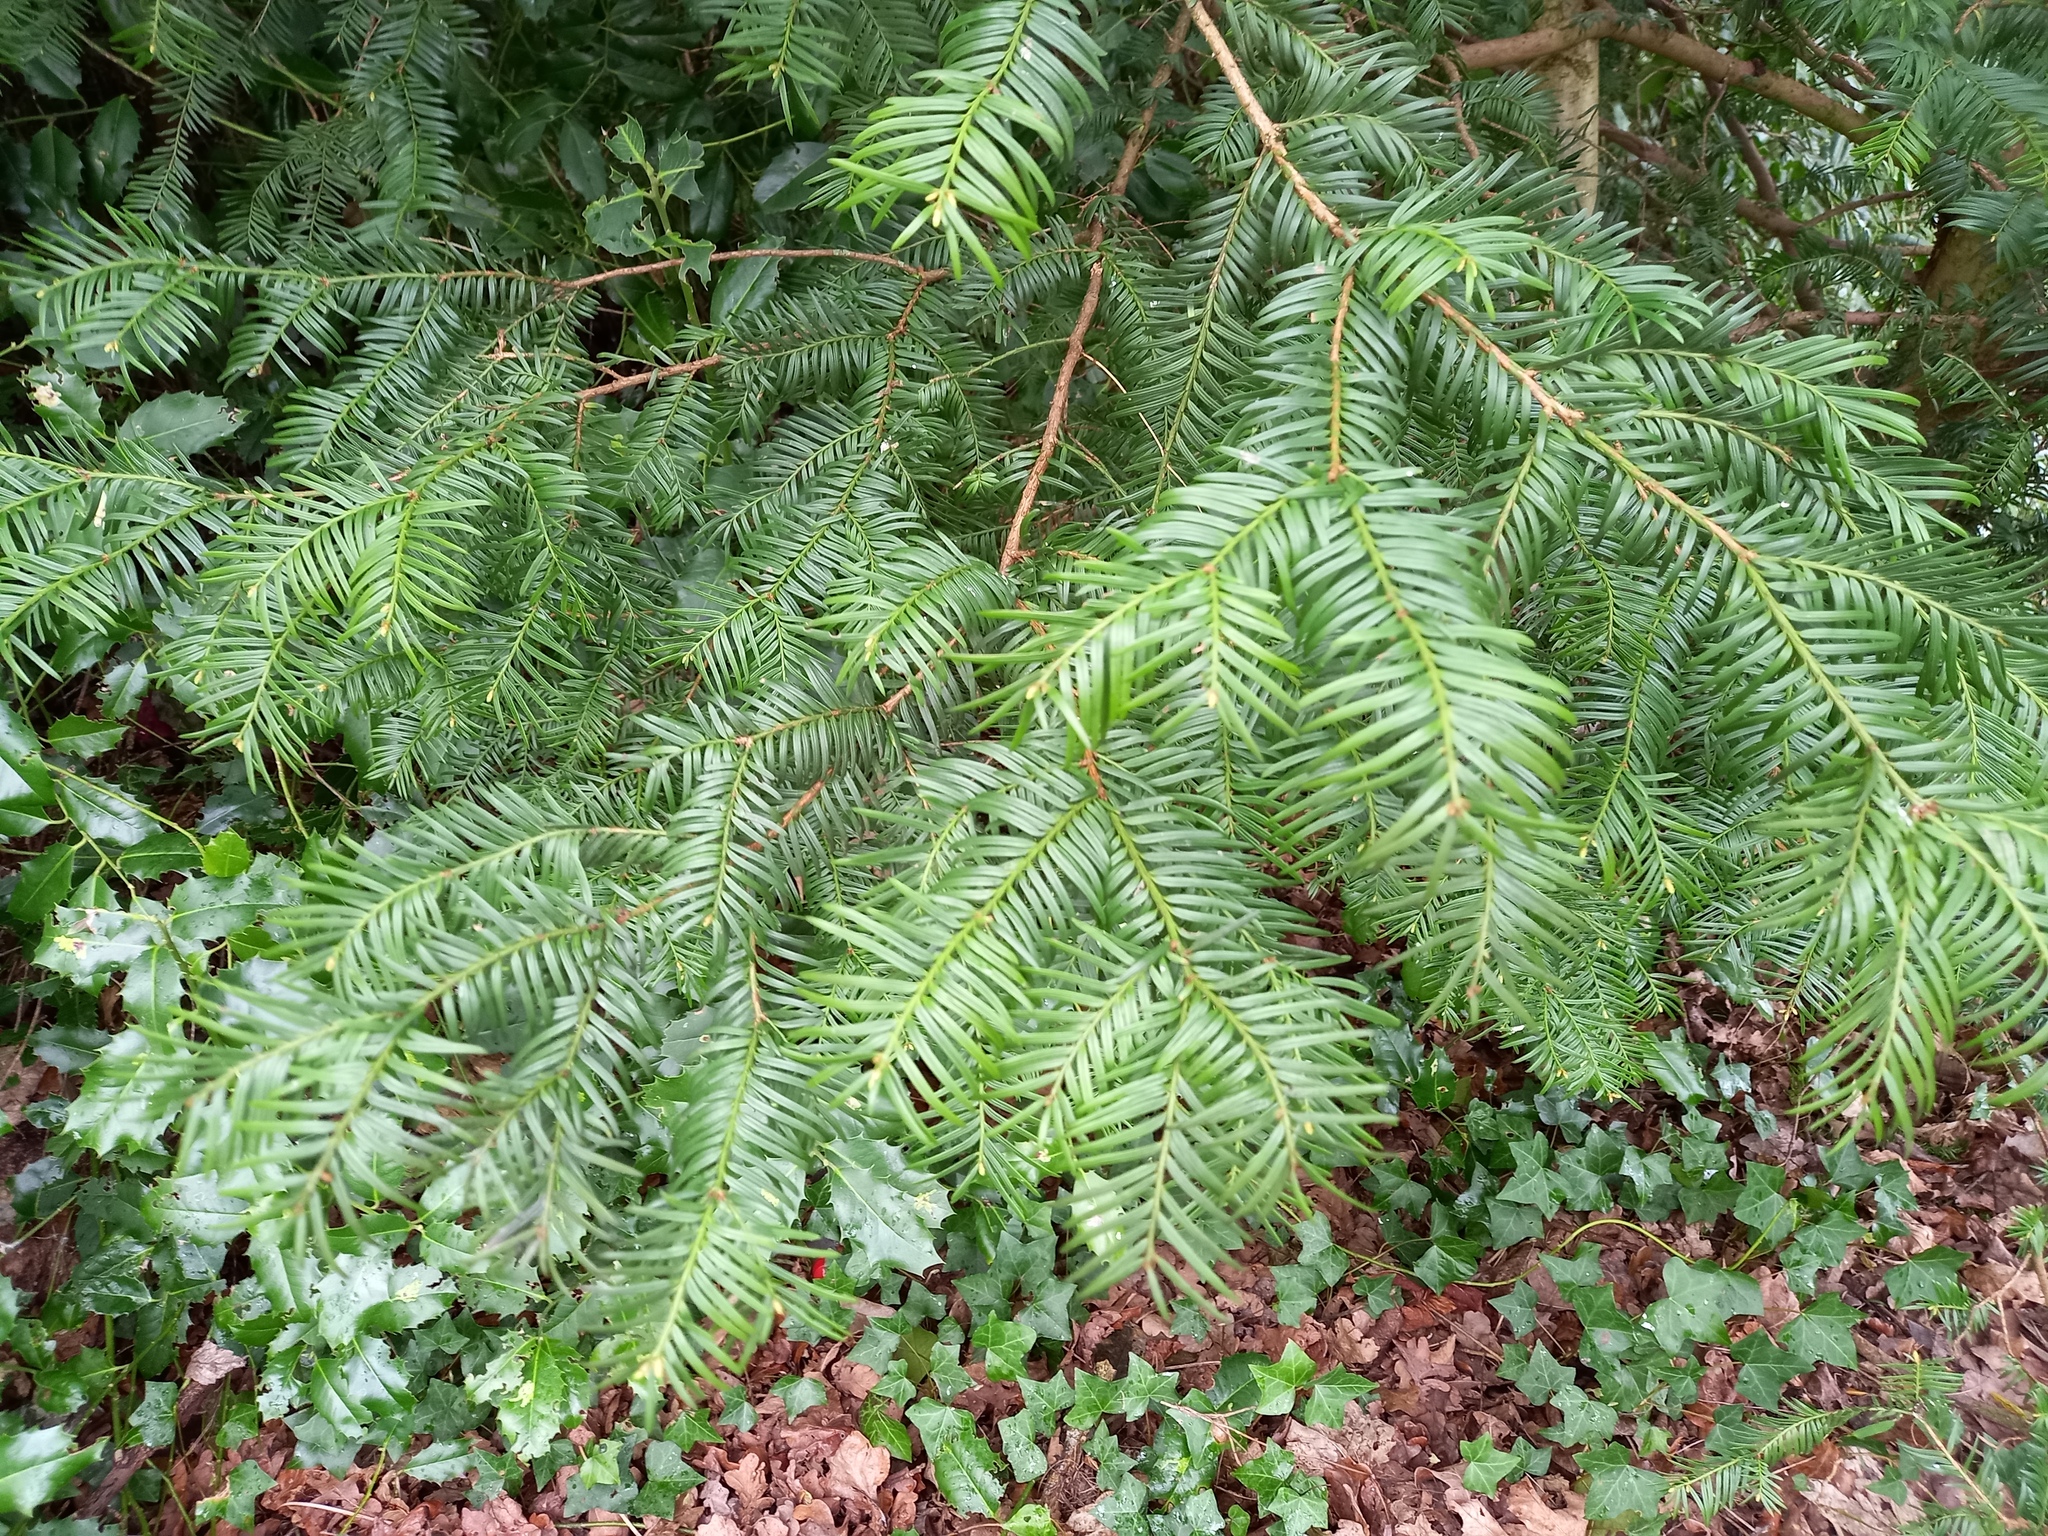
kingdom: Plantae
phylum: Tracheophyta
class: Pinopsida
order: Pinales
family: Taxaceae
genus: Taxus
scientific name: Taxus baccata
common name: Yew
